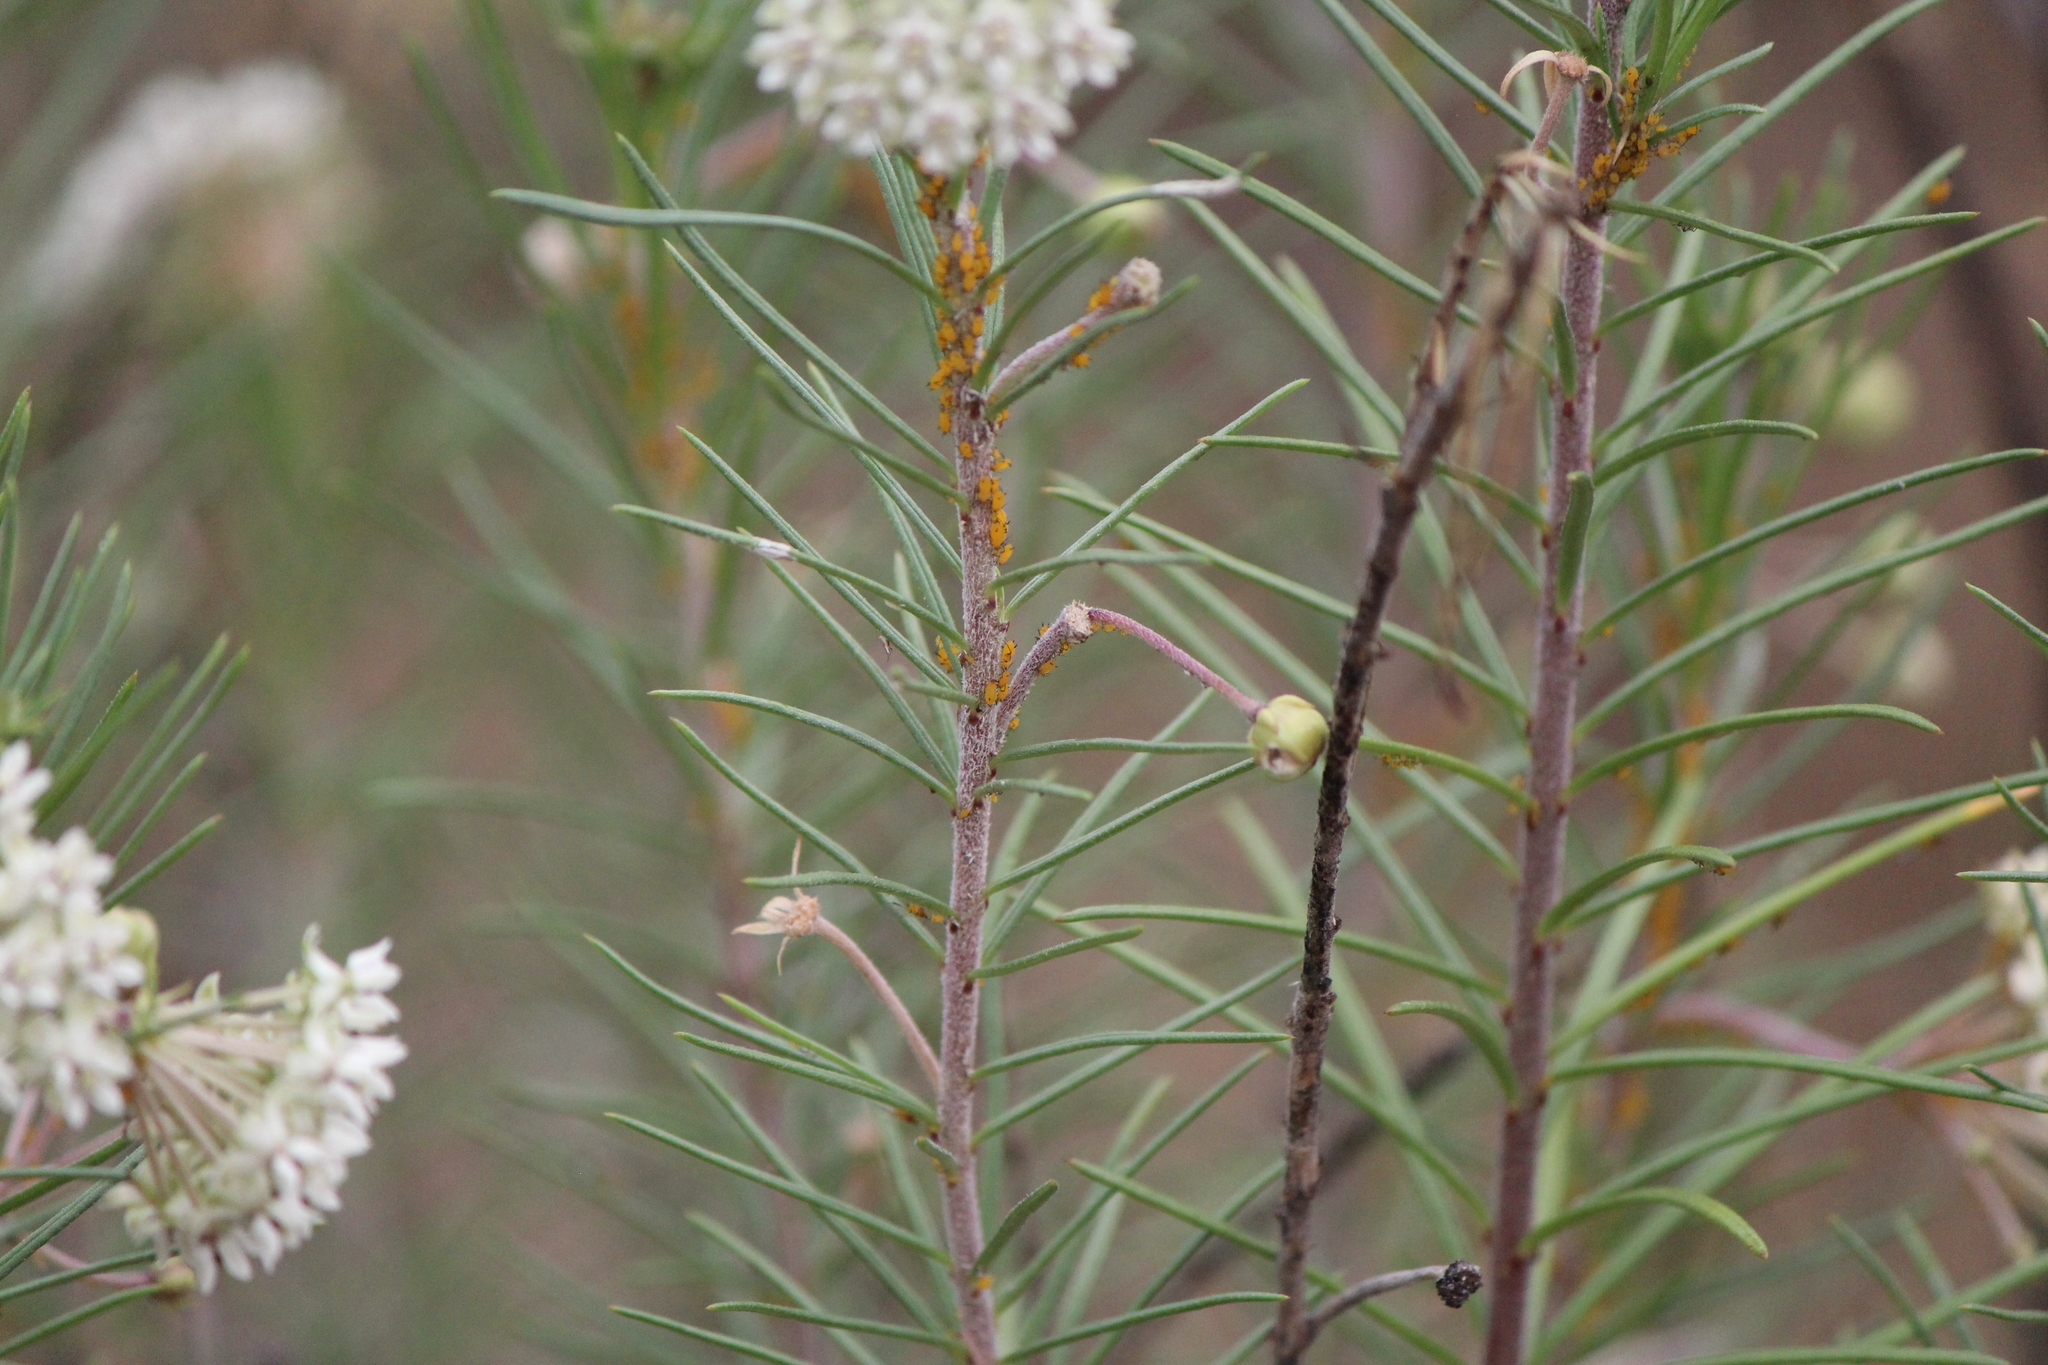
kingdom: Animalia
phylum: Arthropoda
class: Insecta
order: Hemiptera
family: Aphididae
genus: Aphis
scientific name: Aphis nerii
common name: Oleander aphid
